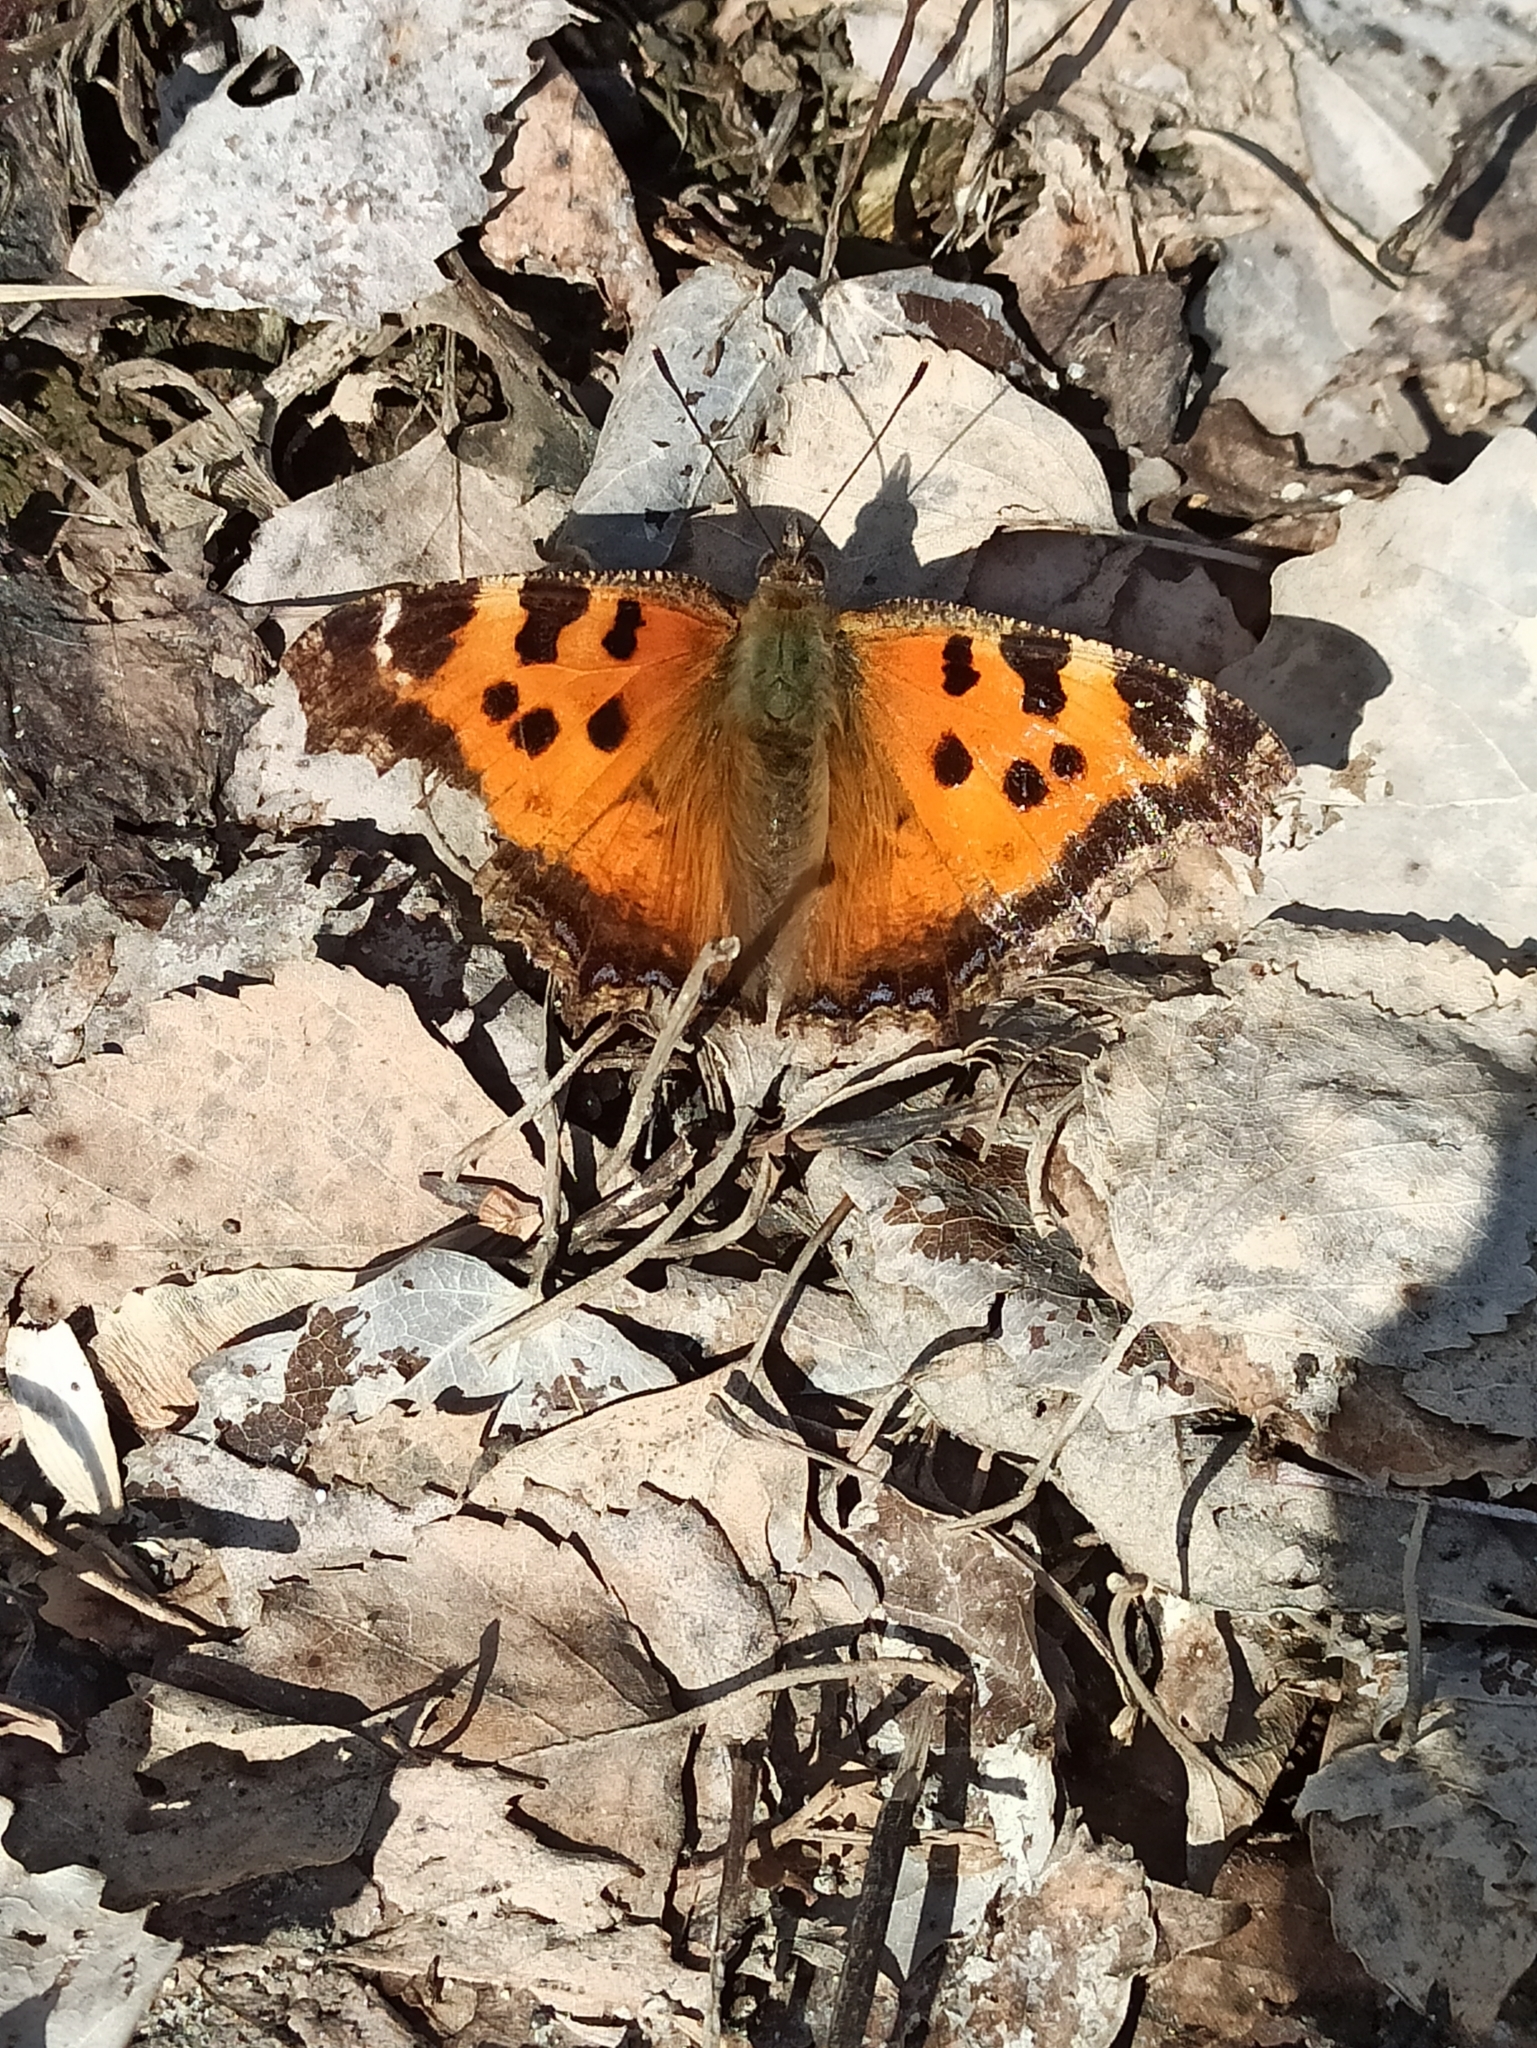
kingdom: Animalia
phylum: Arthropoda
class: Insecta
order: Lepidoptera
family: Nymphalidae
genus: Nymphalis
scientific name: Nymphalis xanthomelas
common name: Scarce tortoiseshell
